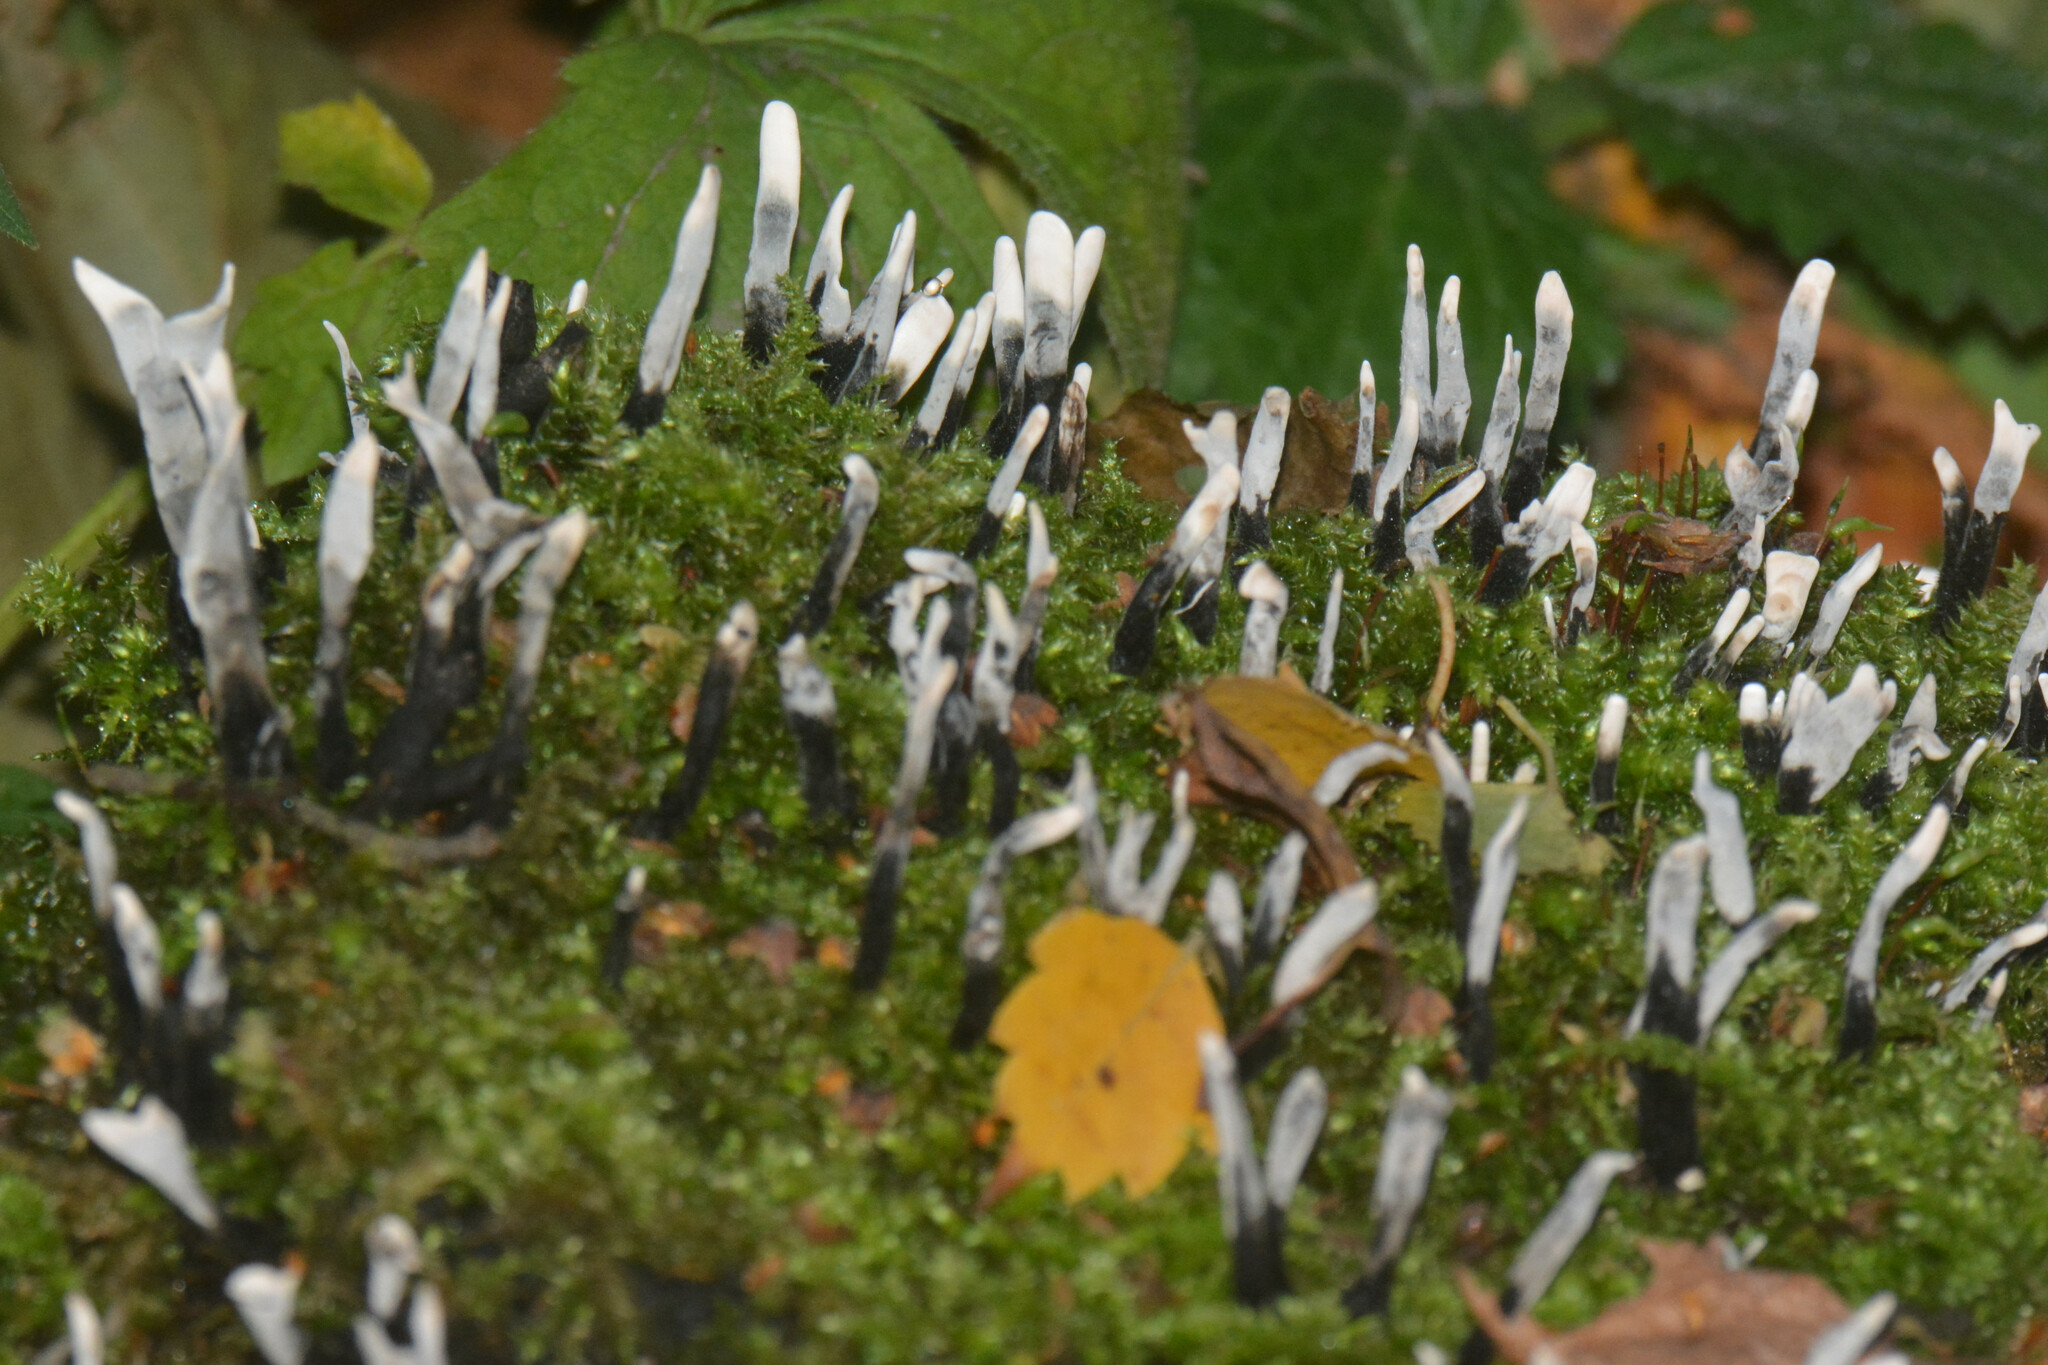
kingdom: Fungi
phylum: Ascomycota
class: Sordariomycetes
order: Xylariales
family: Xylariaceae
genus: Xylaria
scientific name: Xylaria hypoxylon
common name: Candle-snuff fungus
